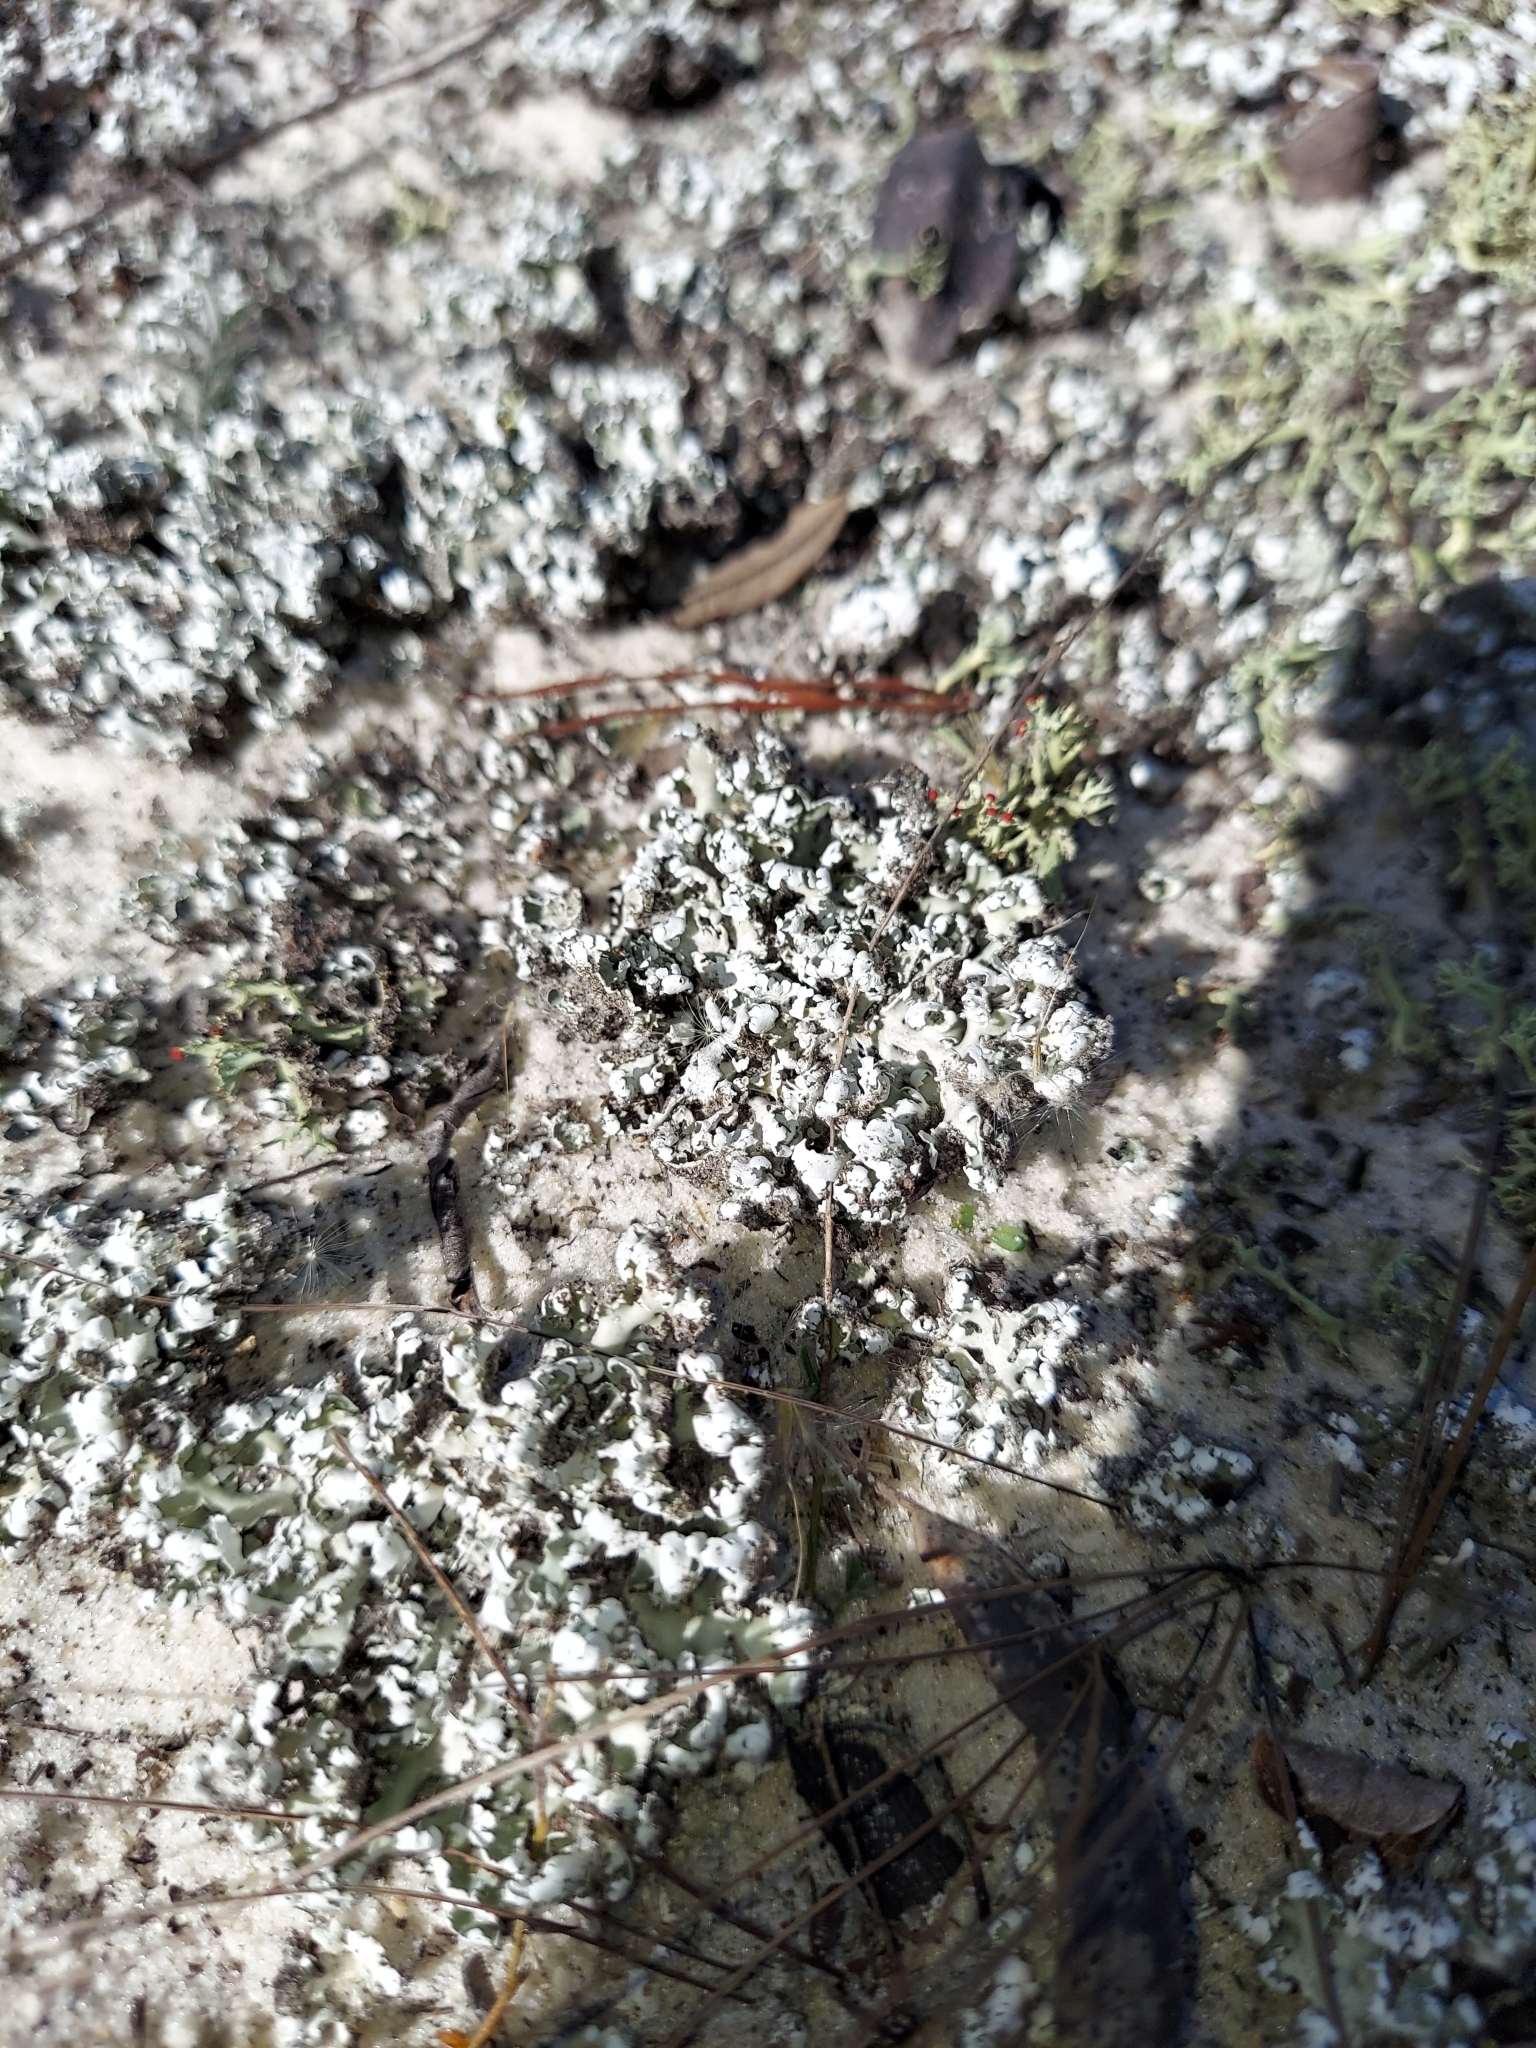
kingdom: Fungi
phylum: Ascomycota
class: Lecanoromycetes
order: Lecanorales
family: Cladoniaceae
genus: Cladonia
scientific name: Cladonia prostrata
